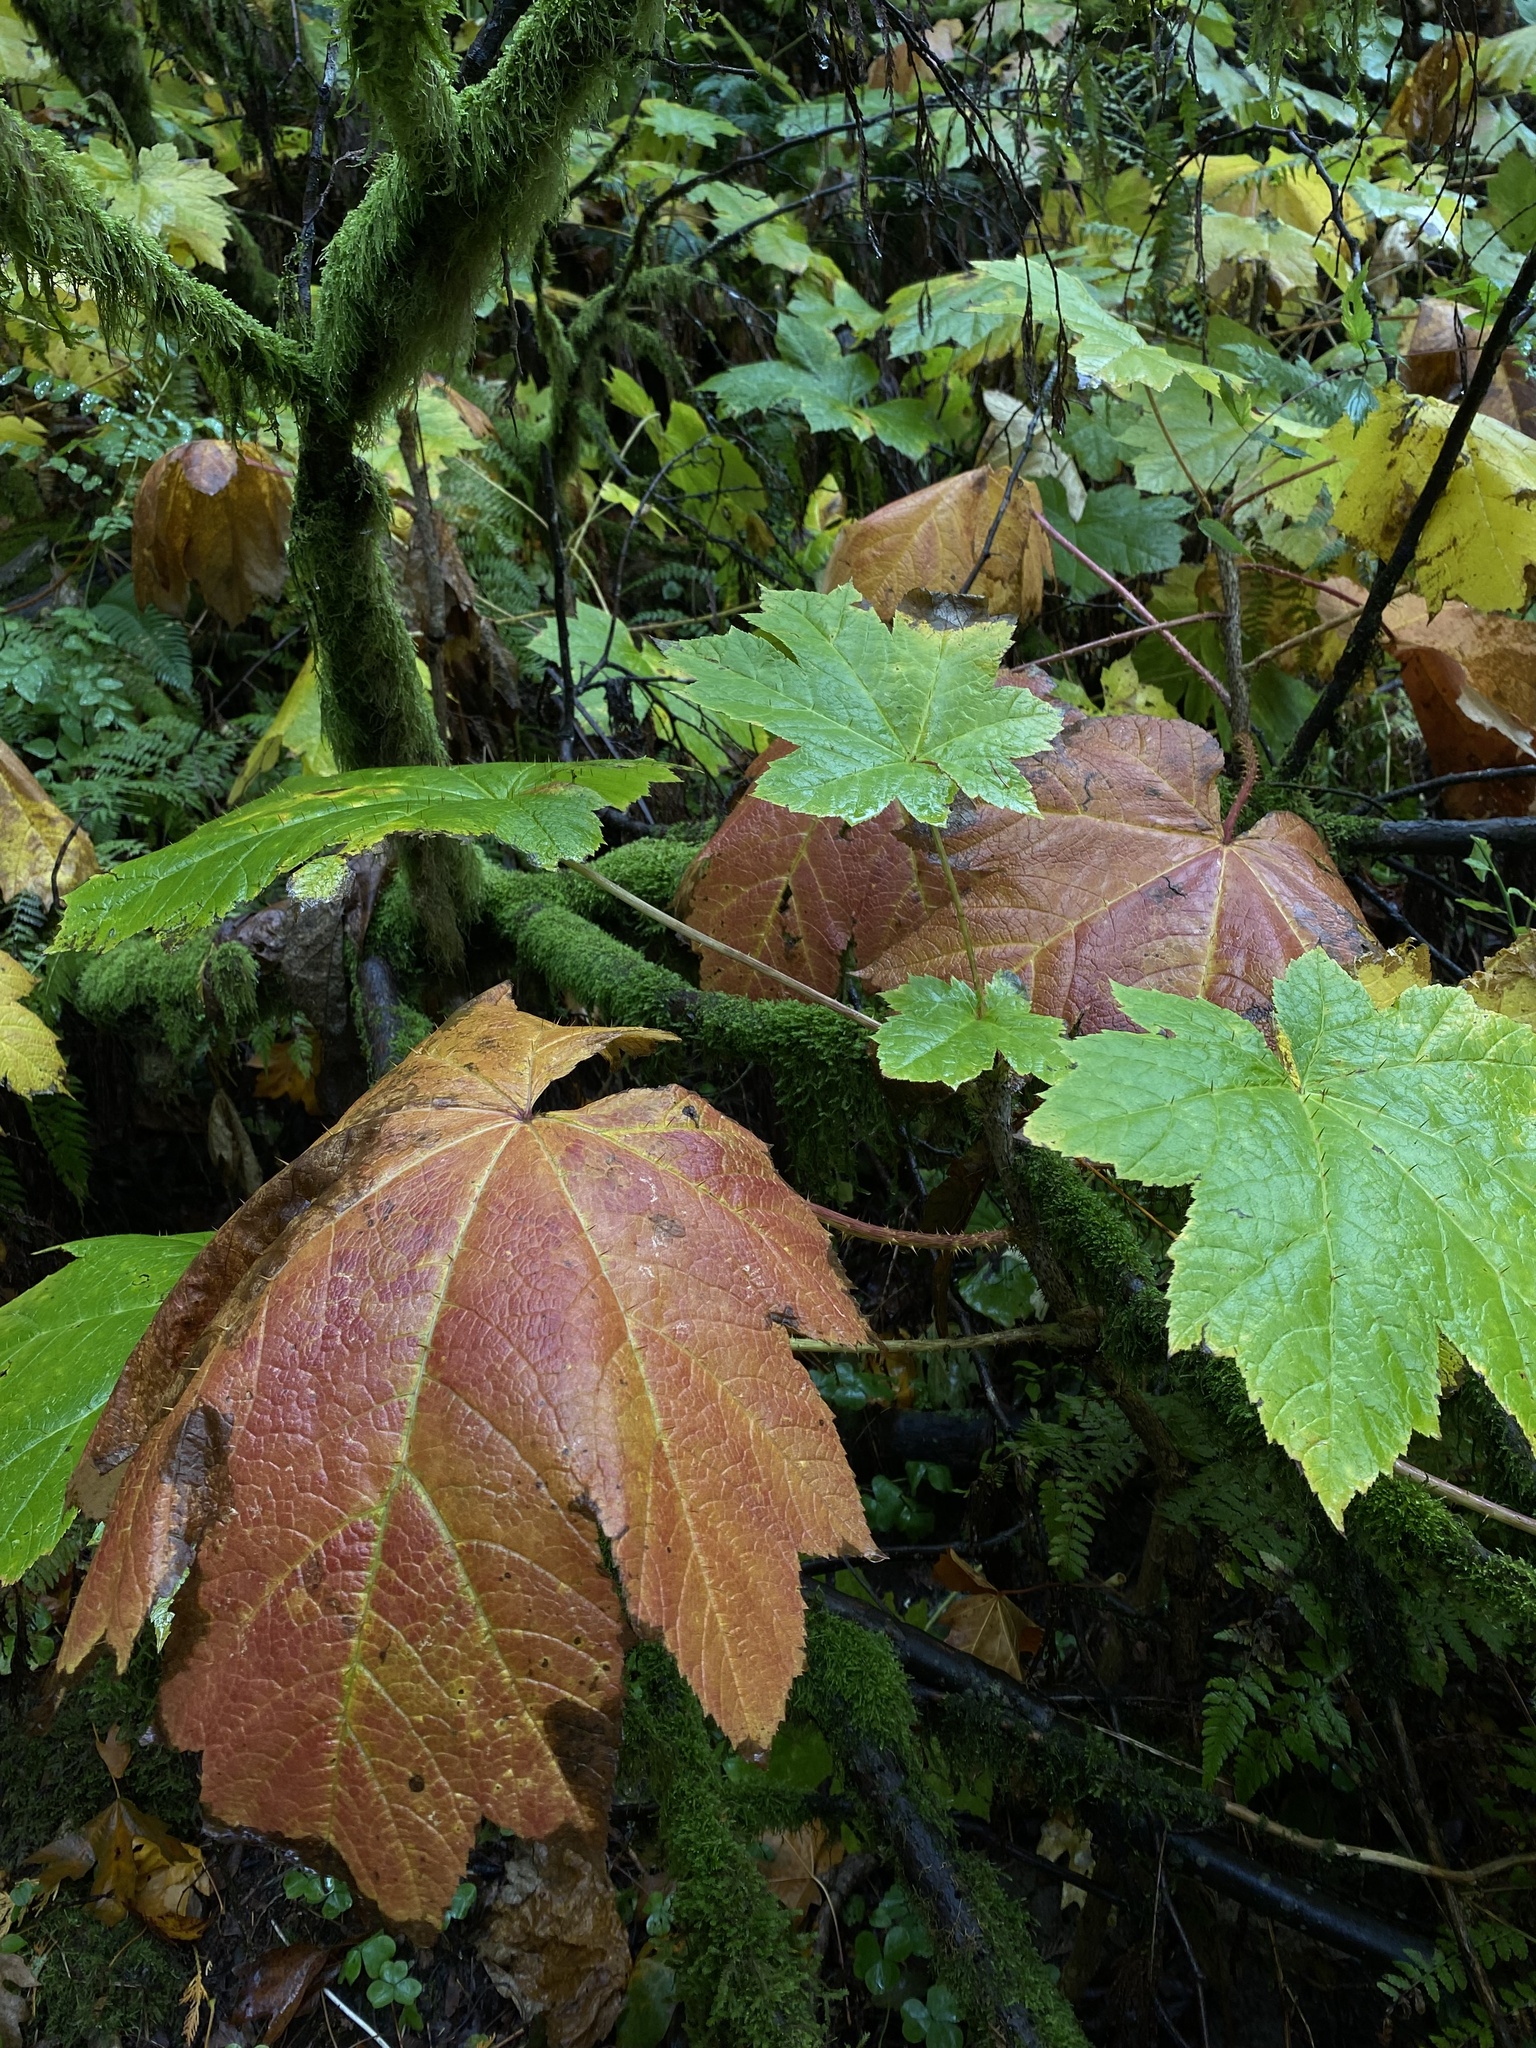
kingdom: Plantae
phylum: Tracheophyta
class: Magnoliopsida
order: Apiales
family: Araliaceae
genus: Oplopanax
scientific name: Oplopanax horridus
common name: Devil's walking-stick
